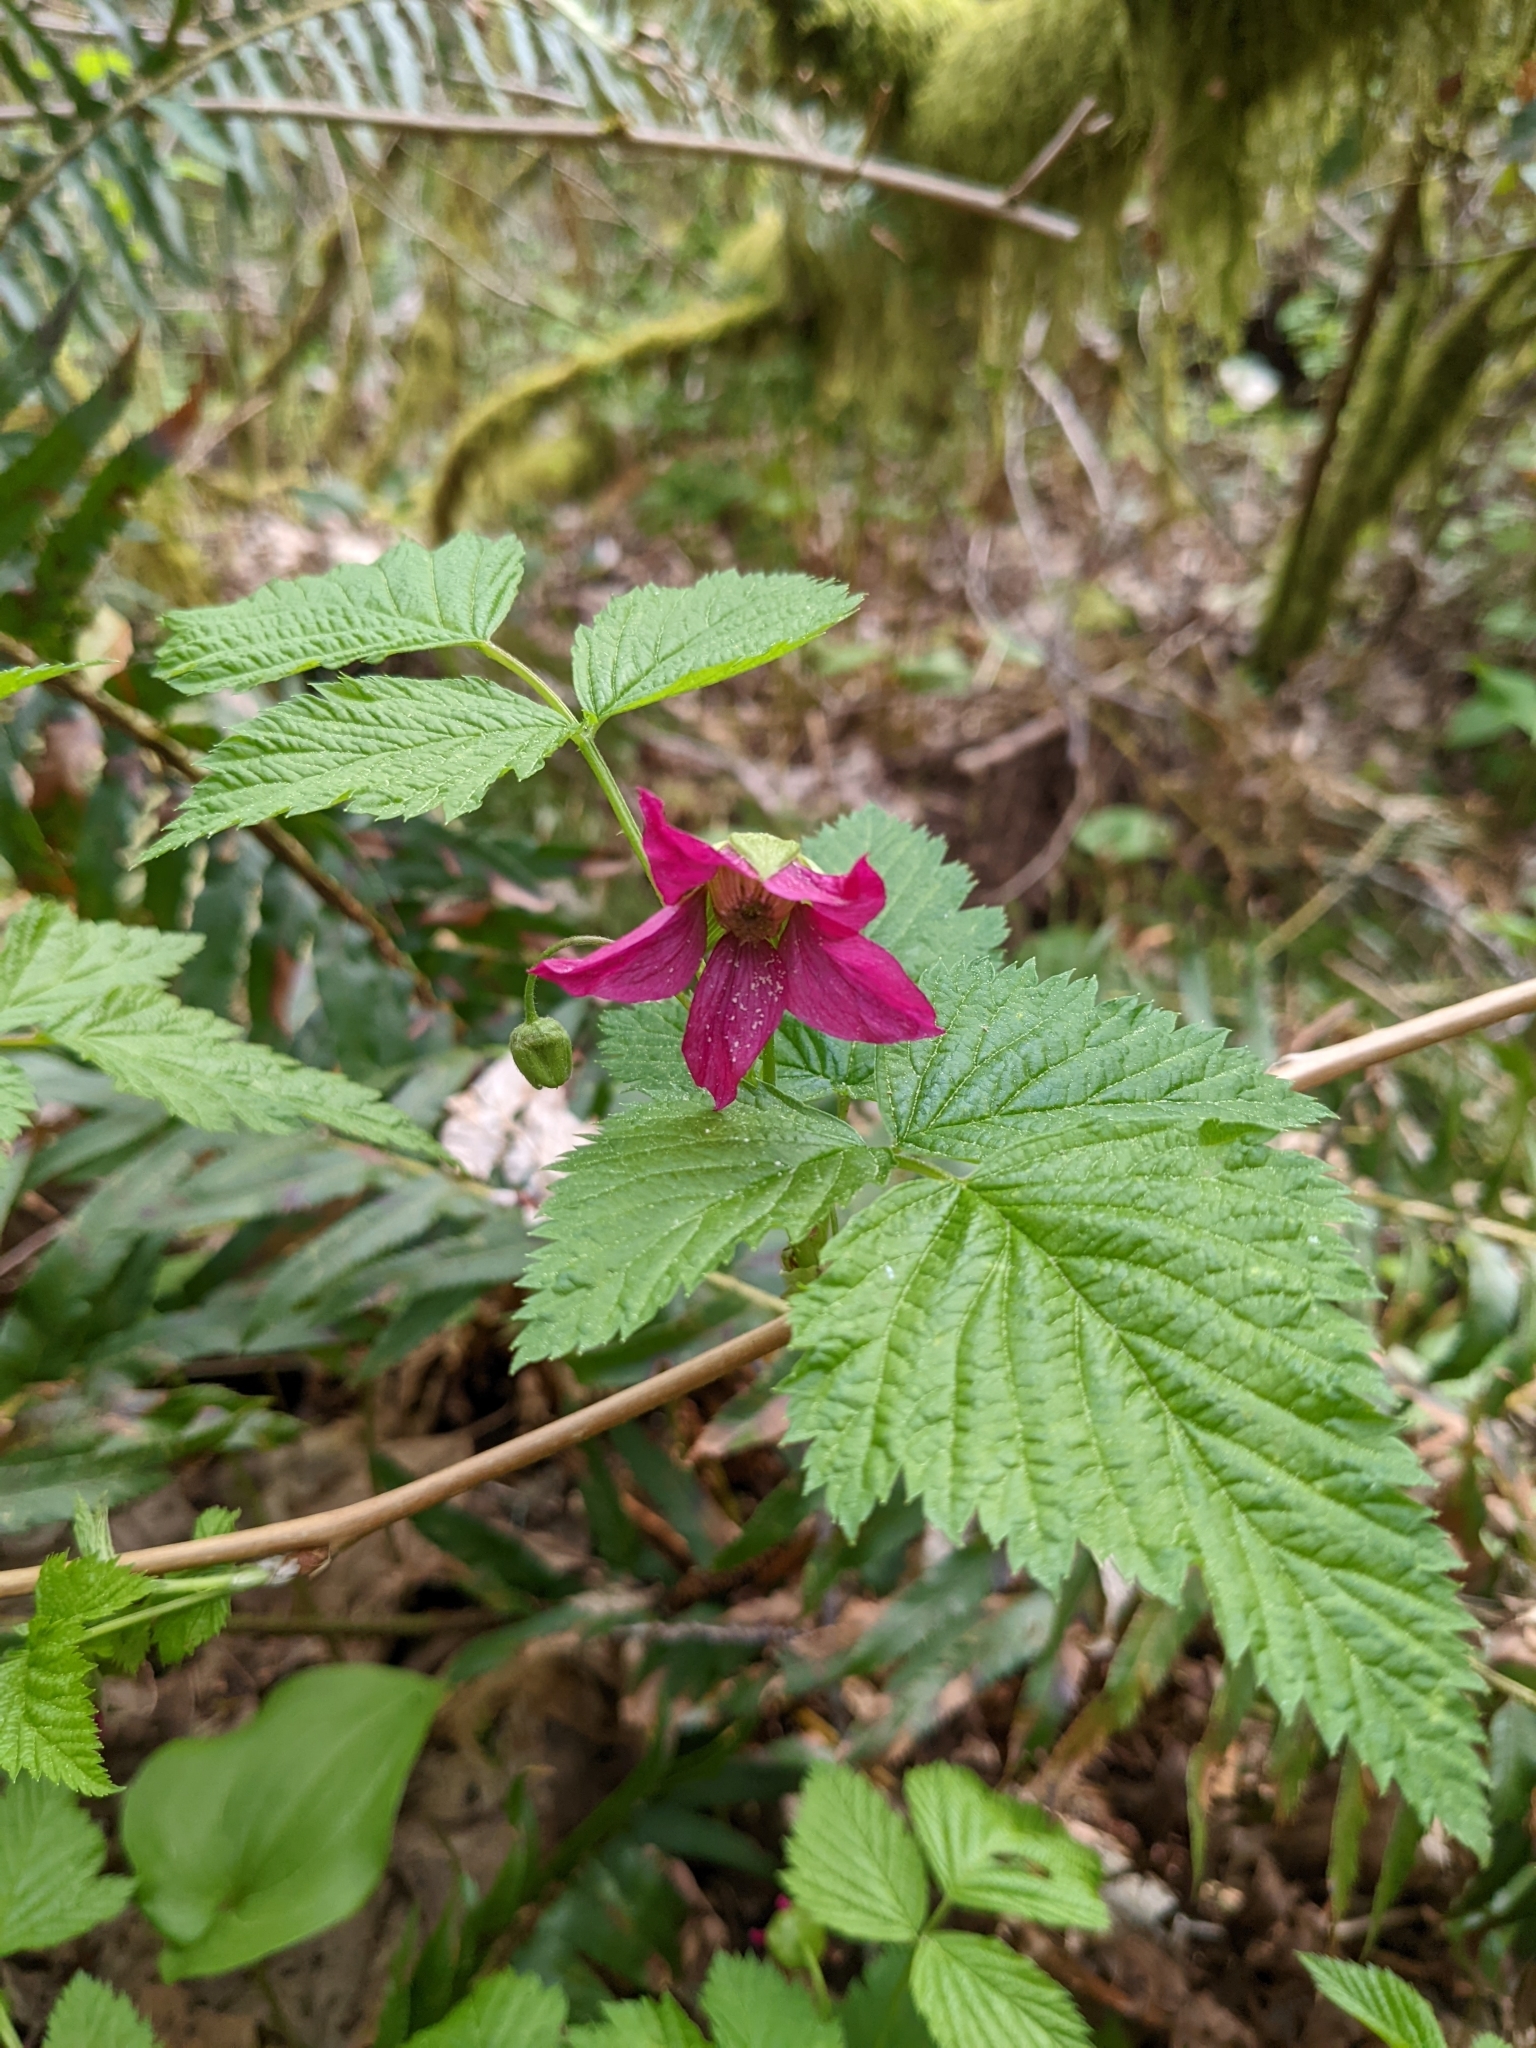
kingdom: Plantae
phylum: Tracheophyta
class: Magnoliopsida
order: Rosales
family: Rosaceae
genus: Rubus
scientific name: Rubus spectabilis
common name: Salmonberry
